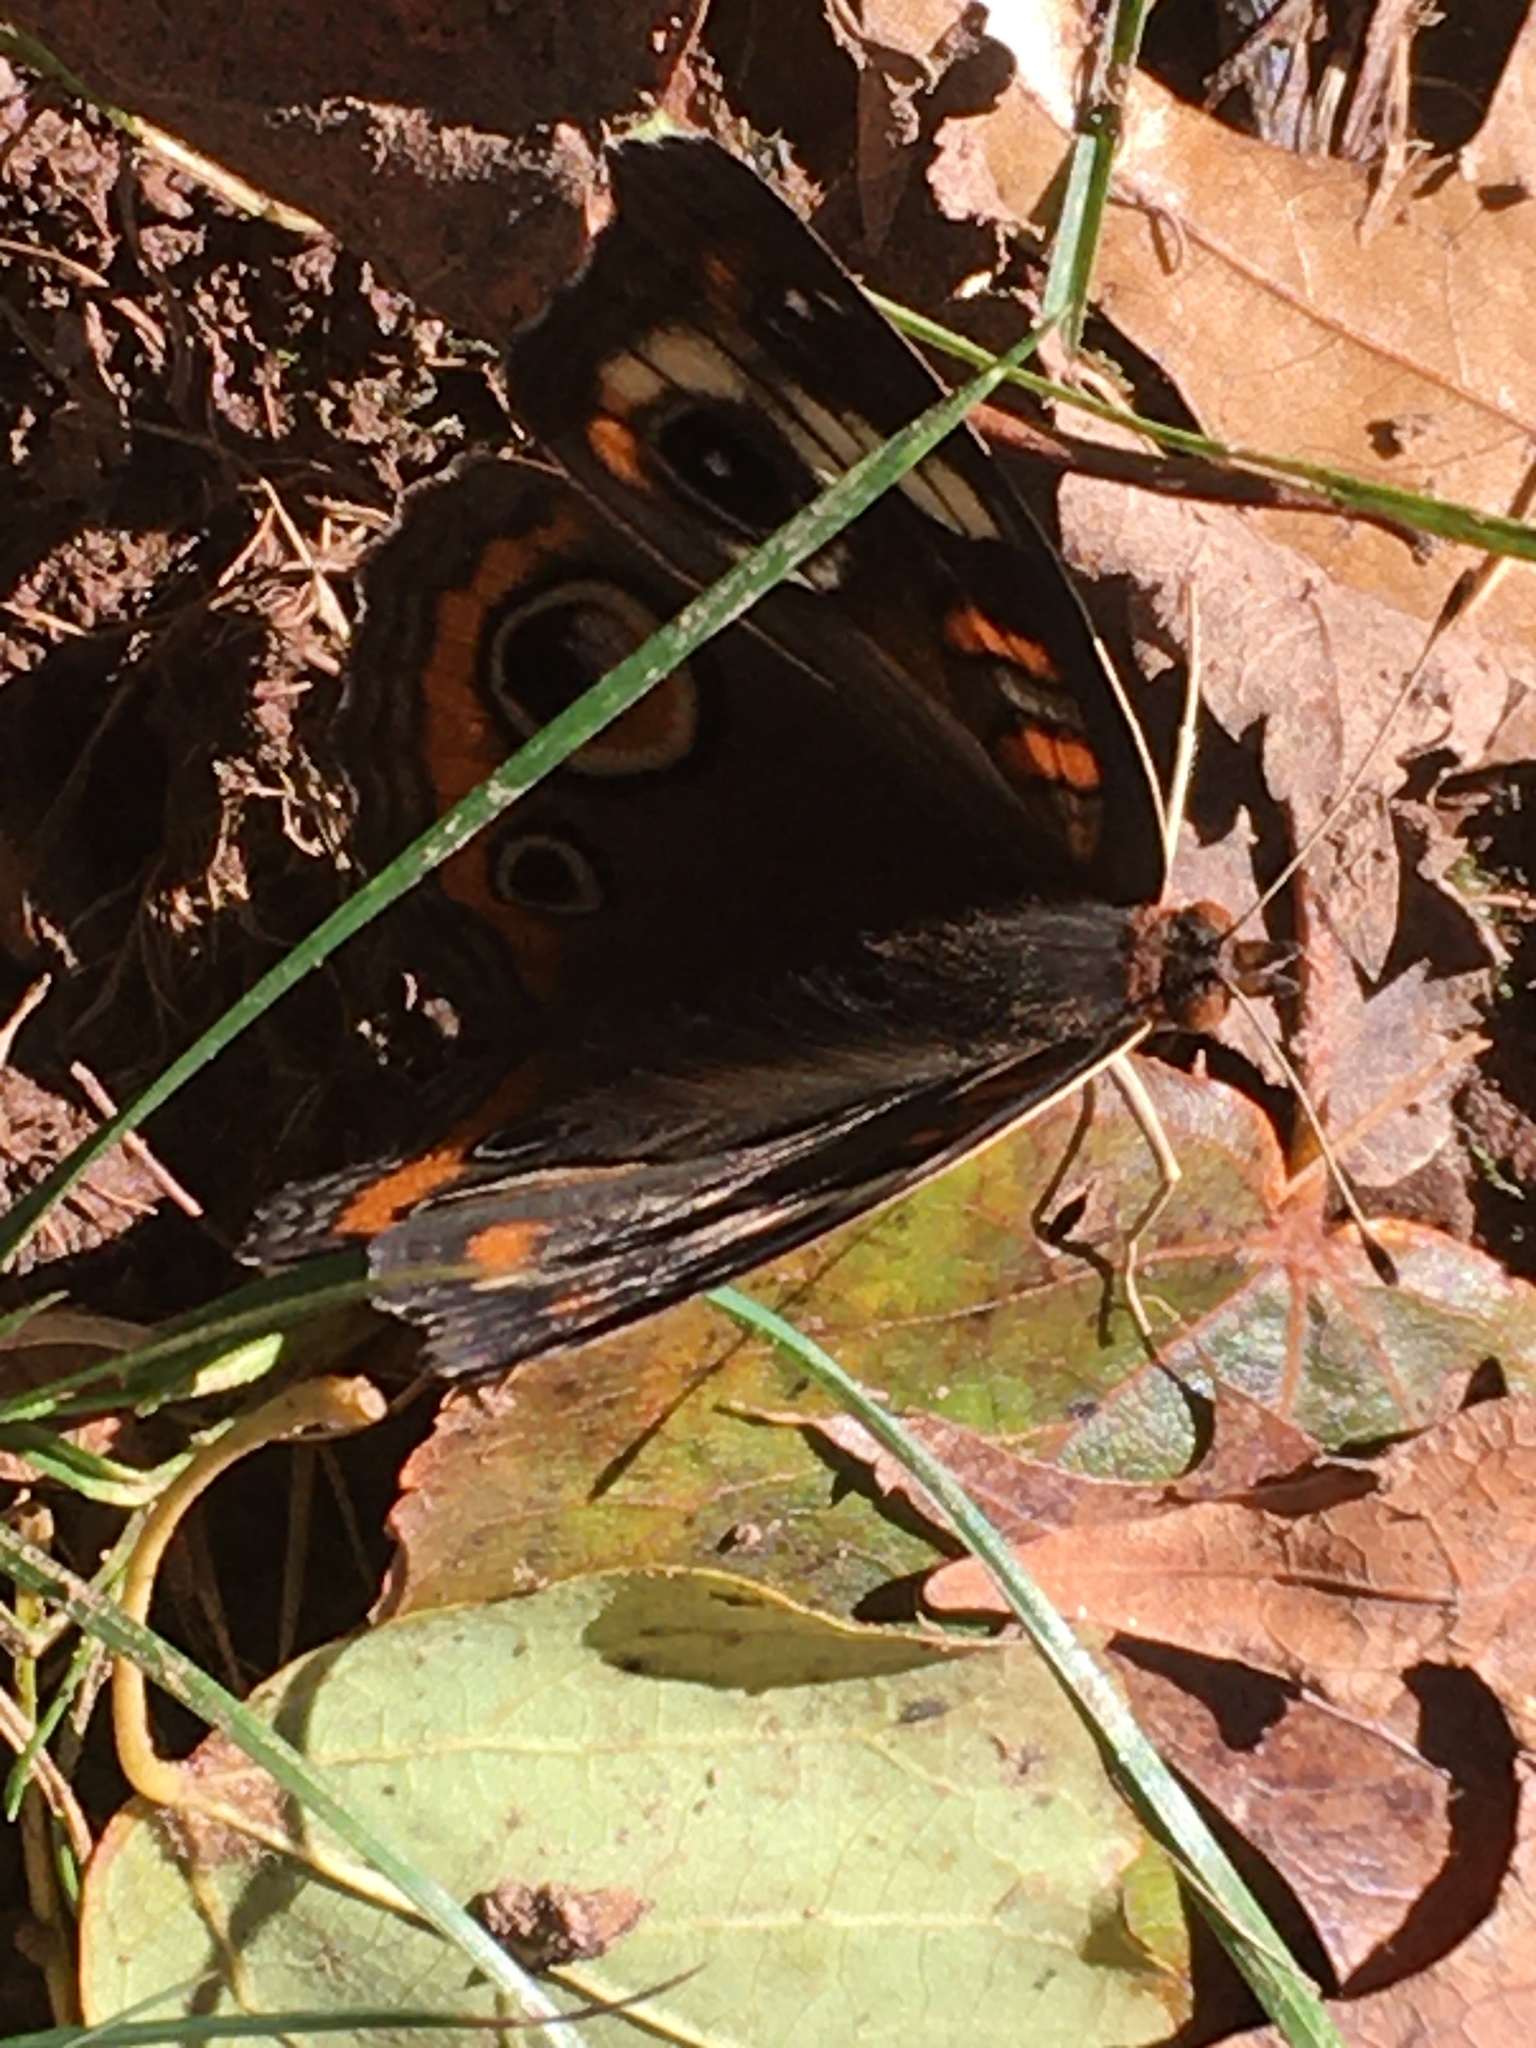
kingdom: Animalia
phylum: Arthropoda
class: Insecta
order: Lepidoptera
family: Nymphalidae
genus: Junonia
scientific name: Junonia coenia
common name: Common buckeye
